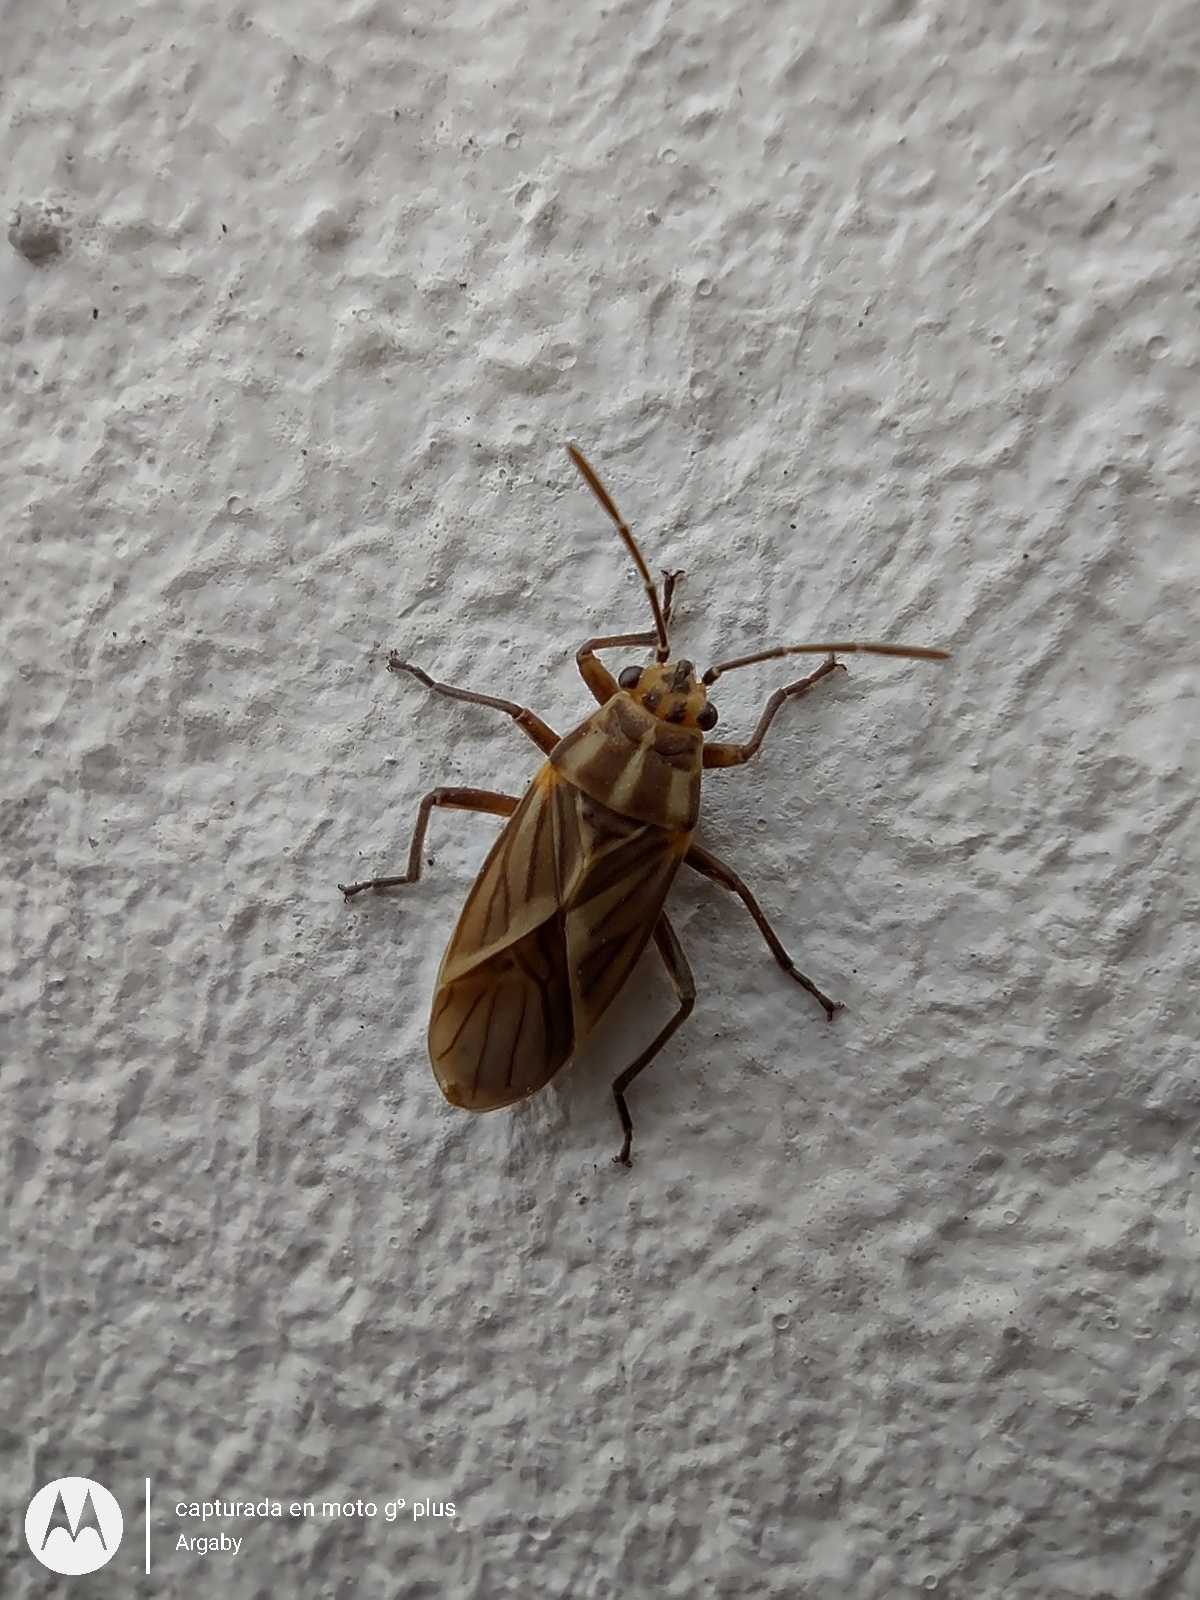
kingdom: Animalia
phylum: Arthropoda
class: Insecta
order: Hemiptera
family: Lygaeidae
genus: Torvochrimnus
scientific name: Torvochrimnus poeyi
